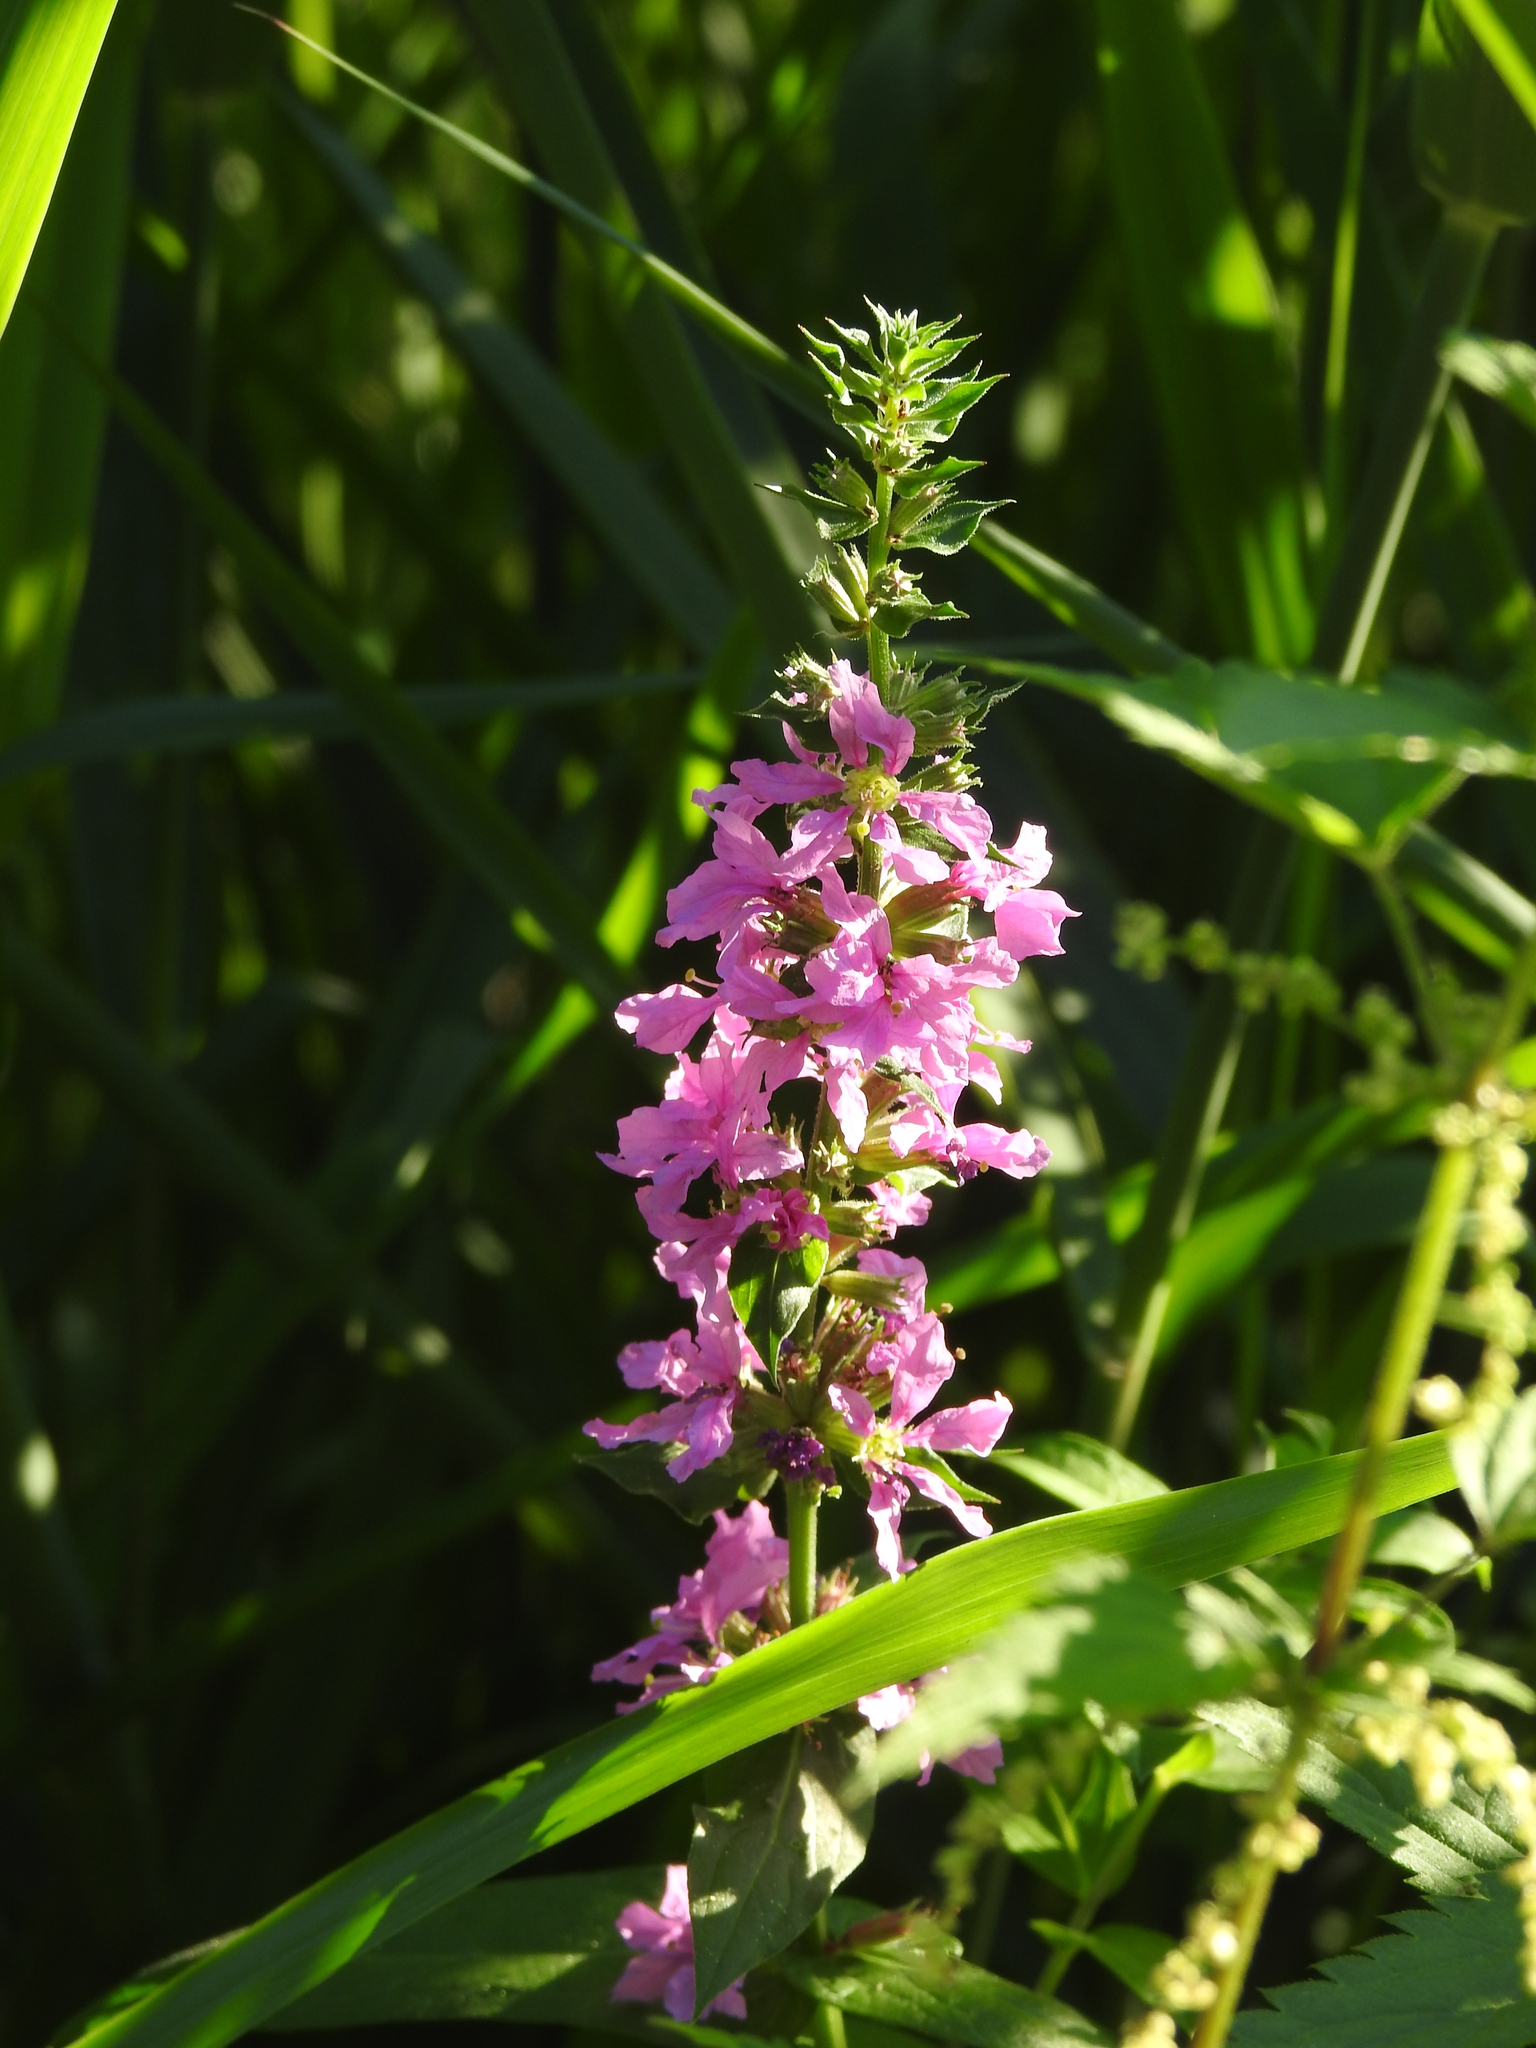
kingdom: Plantae
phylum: Tracheophyta
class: Magnoliopsida
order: Myrtales
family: Lythraceae
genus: Lythrum
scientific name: Lythrum salicaria
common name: Purple loosestrife
